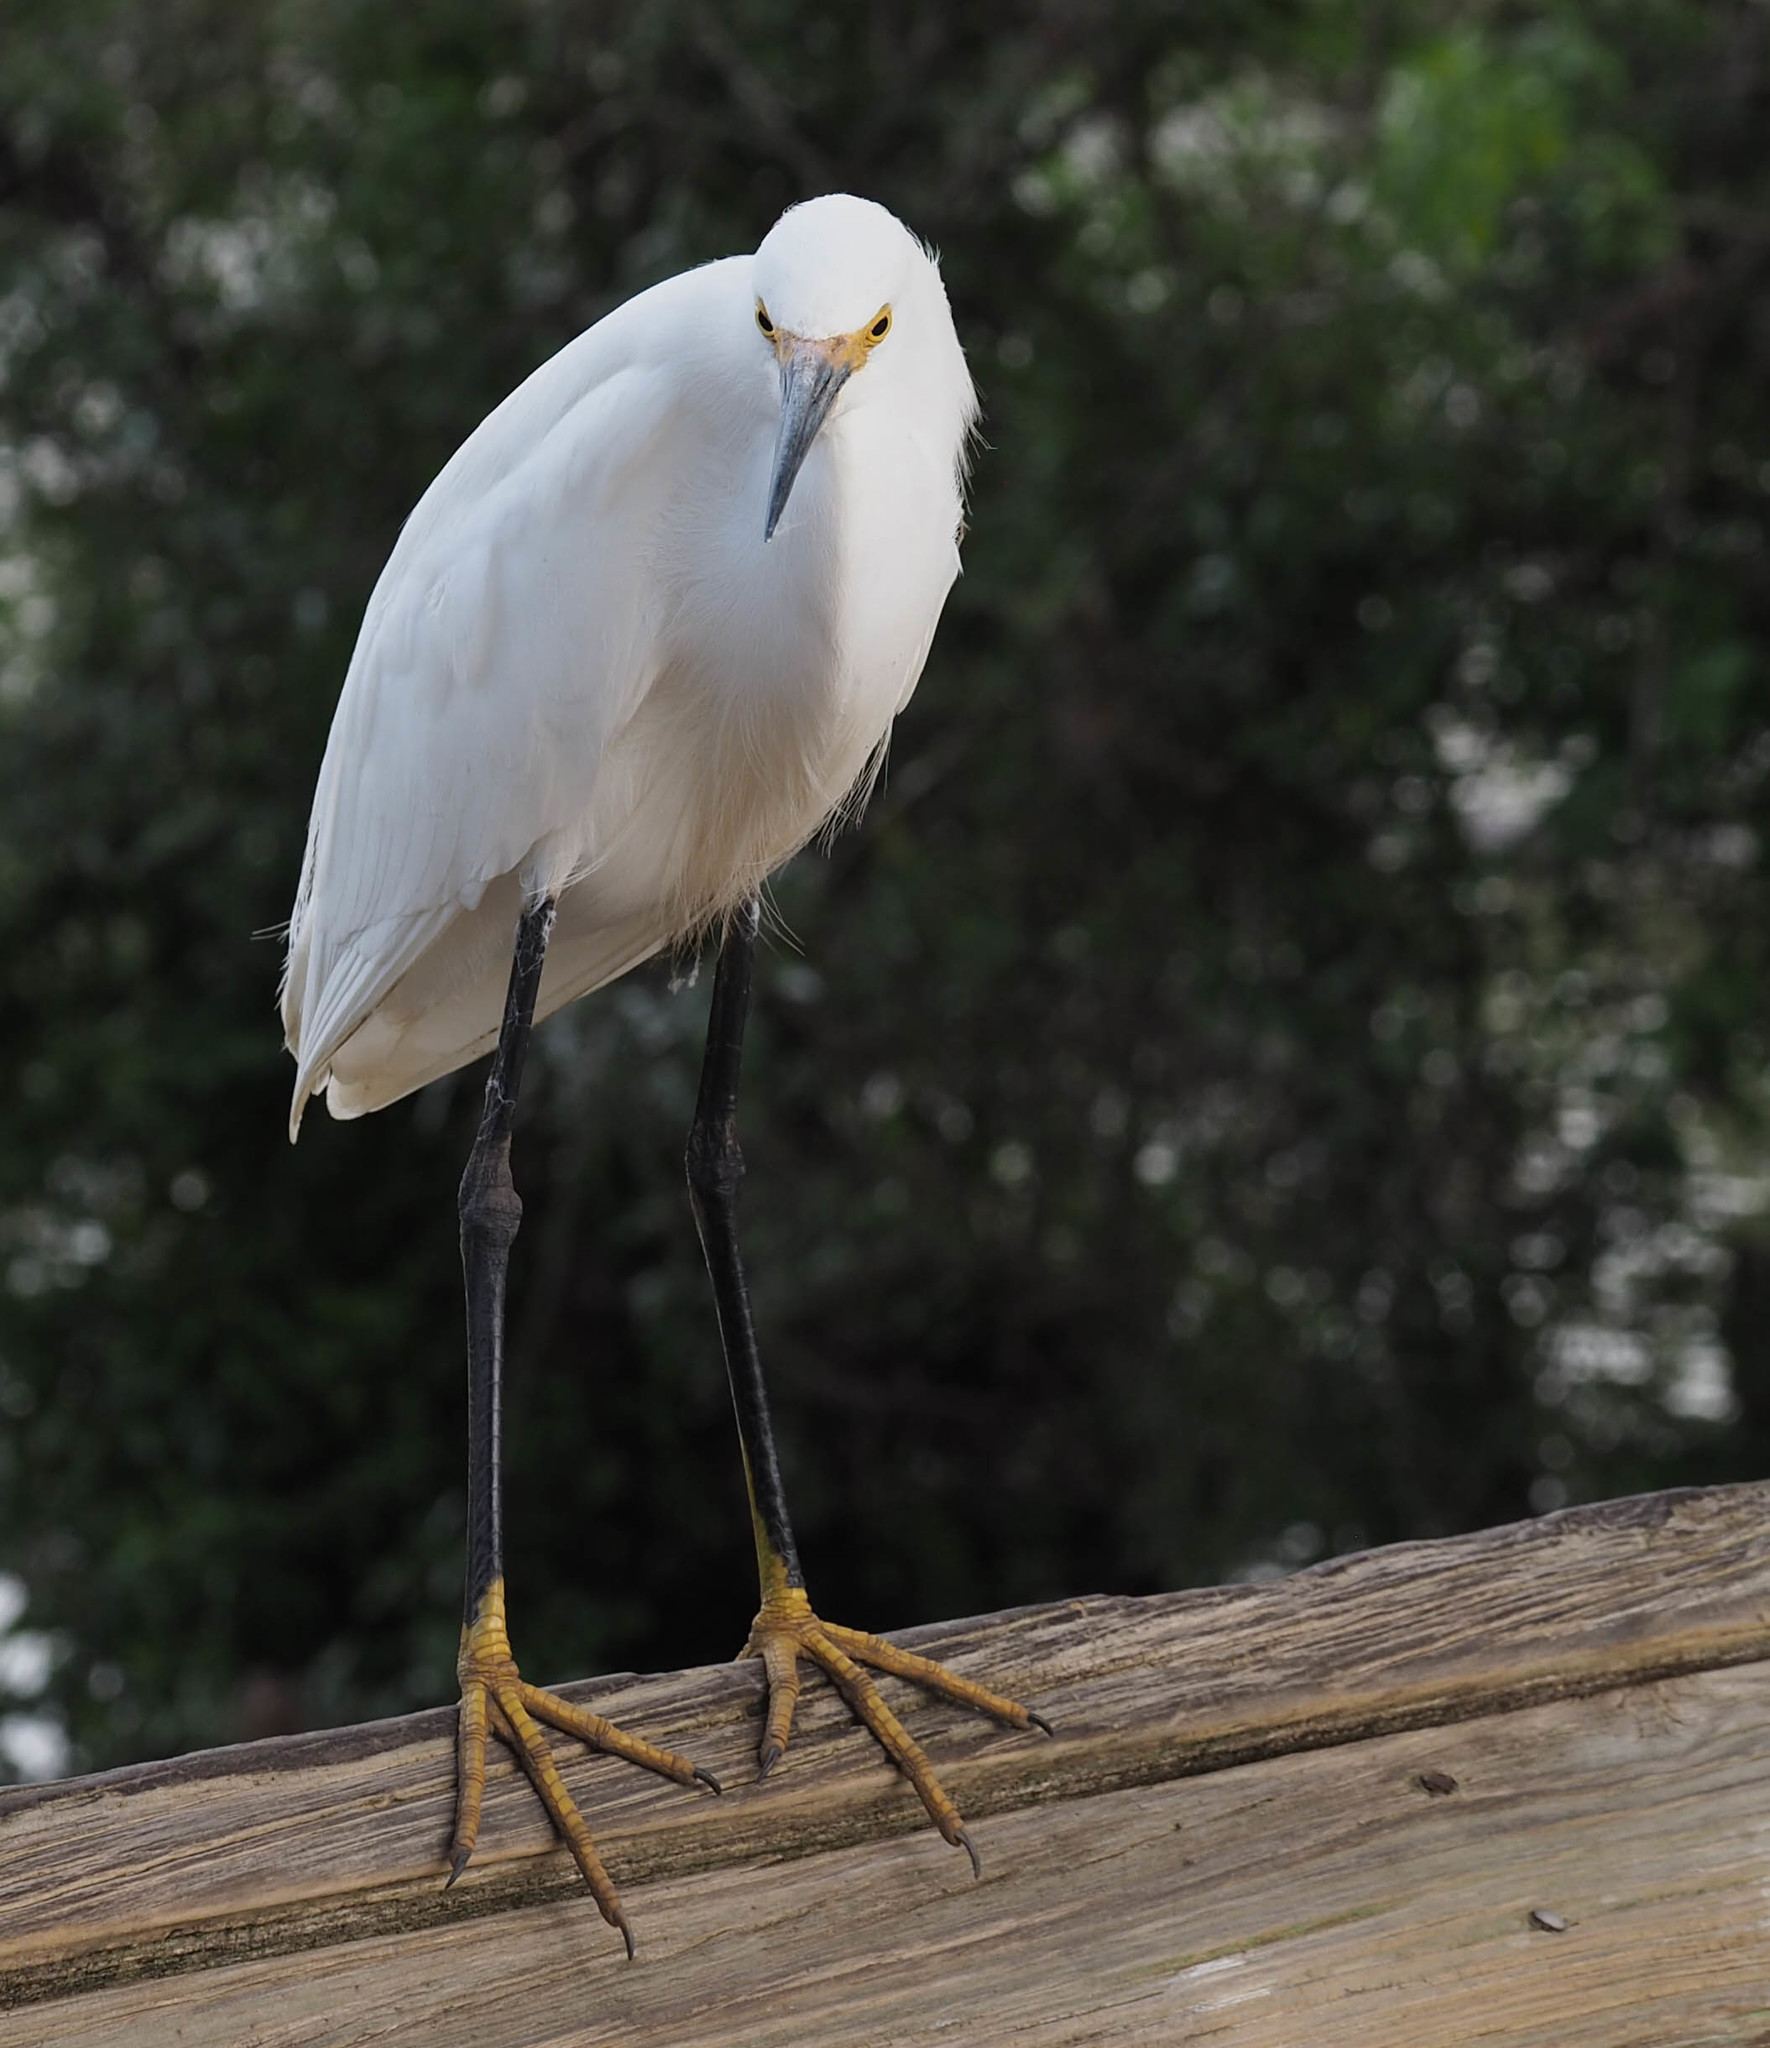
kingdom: Animalia
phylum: Chordata
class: Aves
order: Pelecaniformes
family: Ardeidae
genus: Egretta
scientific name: Egretta thula
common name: Snowy egret
